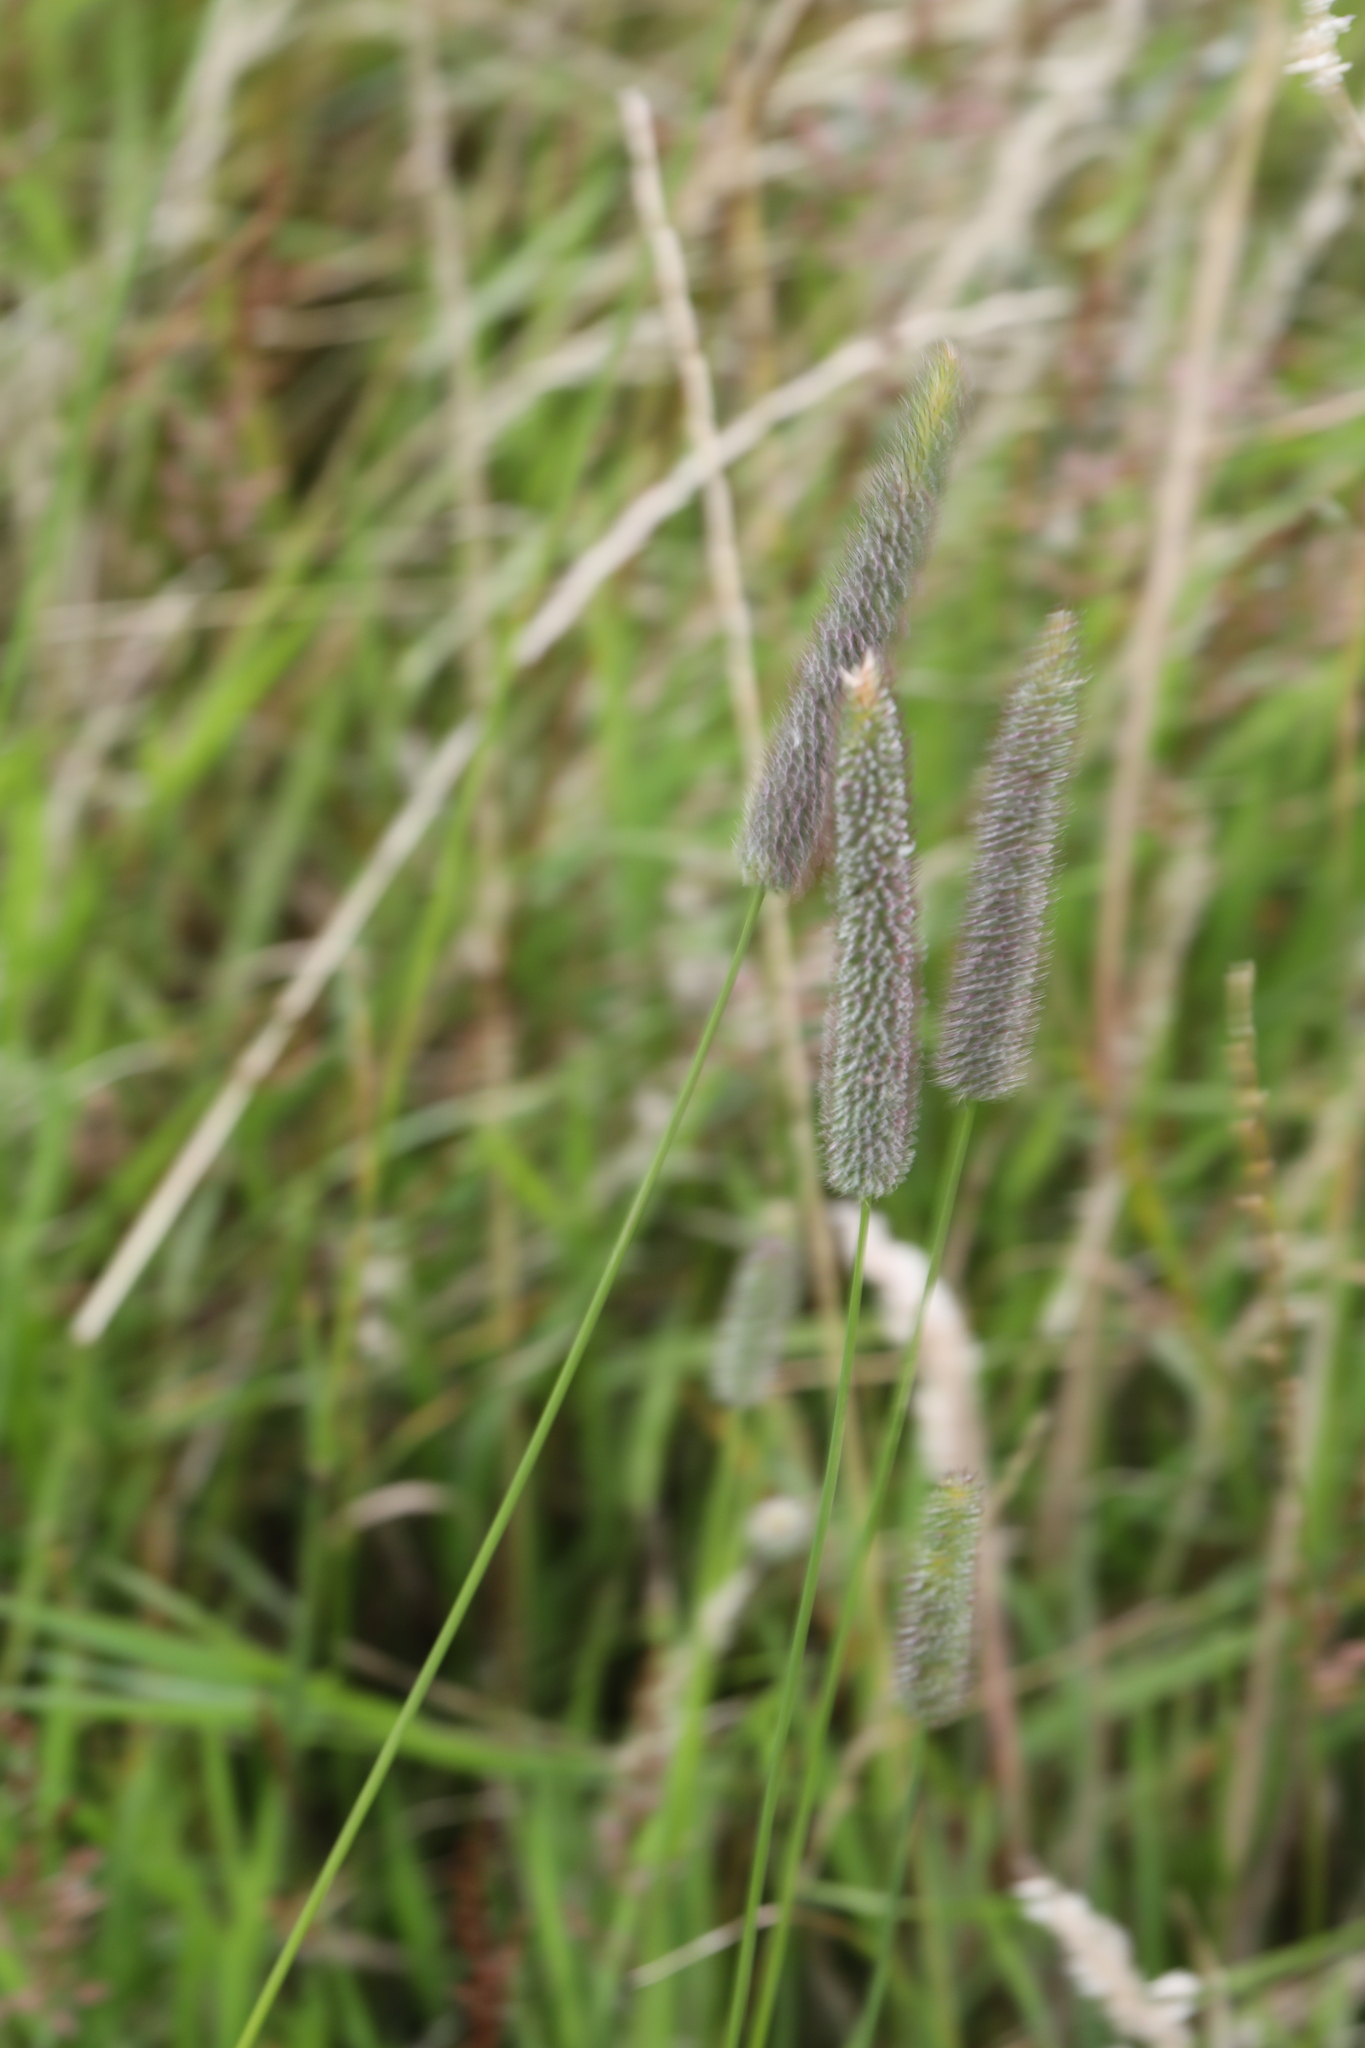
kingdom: Plantae
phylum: Tracheophyta
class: Liliopsida
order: Poales
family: Poaceae
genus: Phleum
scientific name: Phleum pratense
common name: Timothy grass
